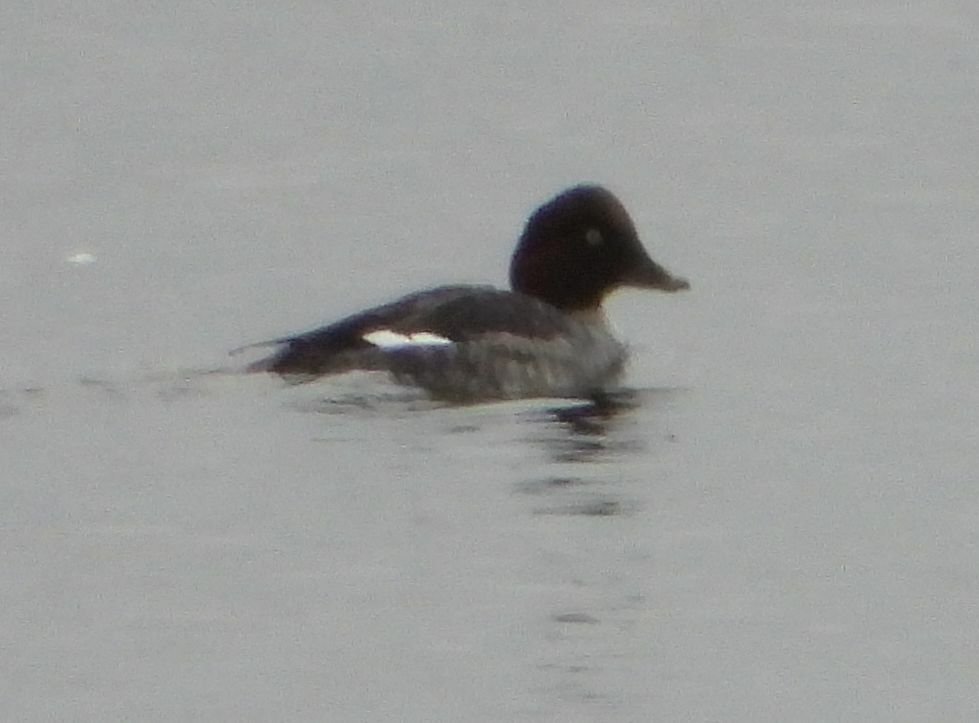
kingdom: Animalia
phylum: Chordata
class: Aves
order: Anseriformes
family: Anatidae
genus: Bucephala
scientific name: Bucephala clangula
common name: Common goldeneye
